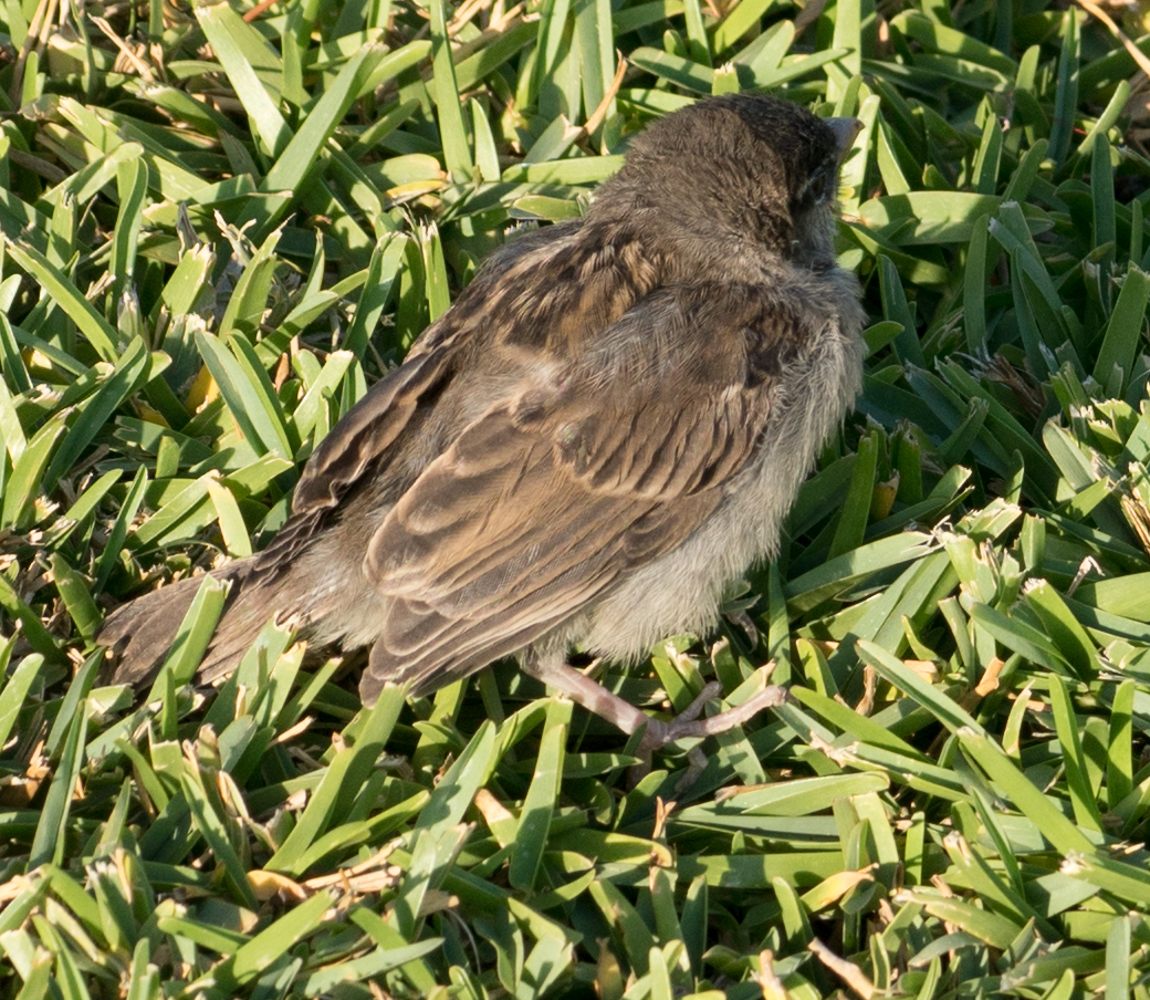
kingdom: Animalia
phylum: Chordata
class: Aves
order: Passeriformes
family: Passeridae
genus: Passer
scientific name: Passer domesticus
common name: House sparrow
